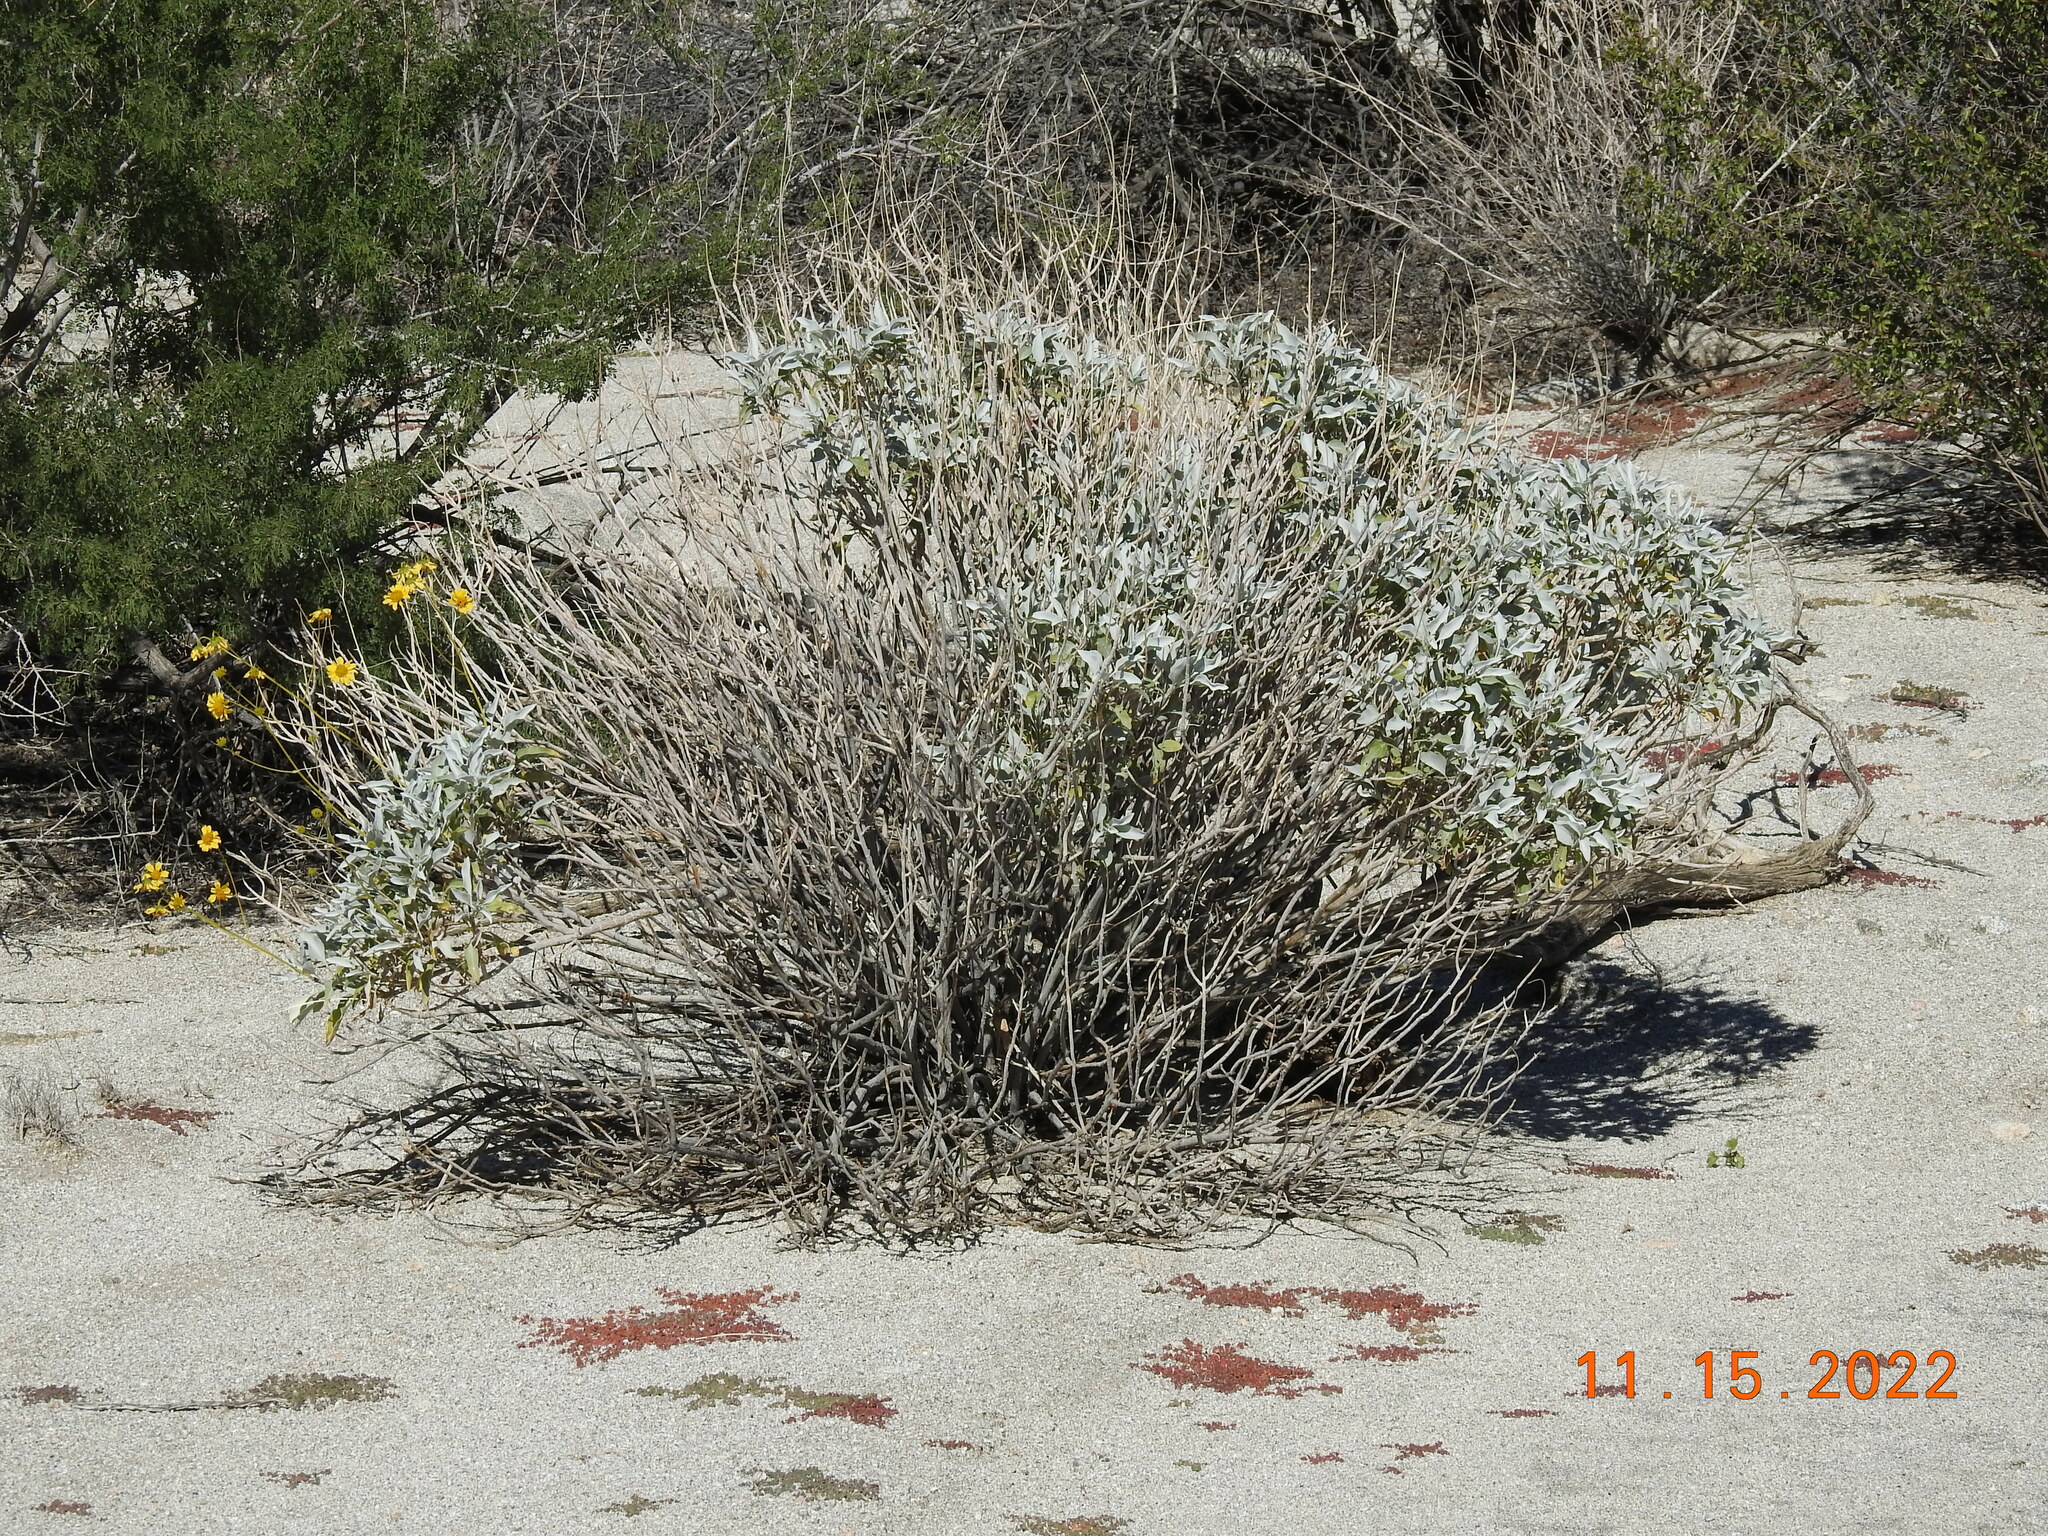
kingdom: Plantae
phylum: Tracheophyta
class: Magnoliopsida
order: Asterales
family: Asteraceae
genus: Encelia
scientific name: Encelia farinosa
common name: Brittlebush
